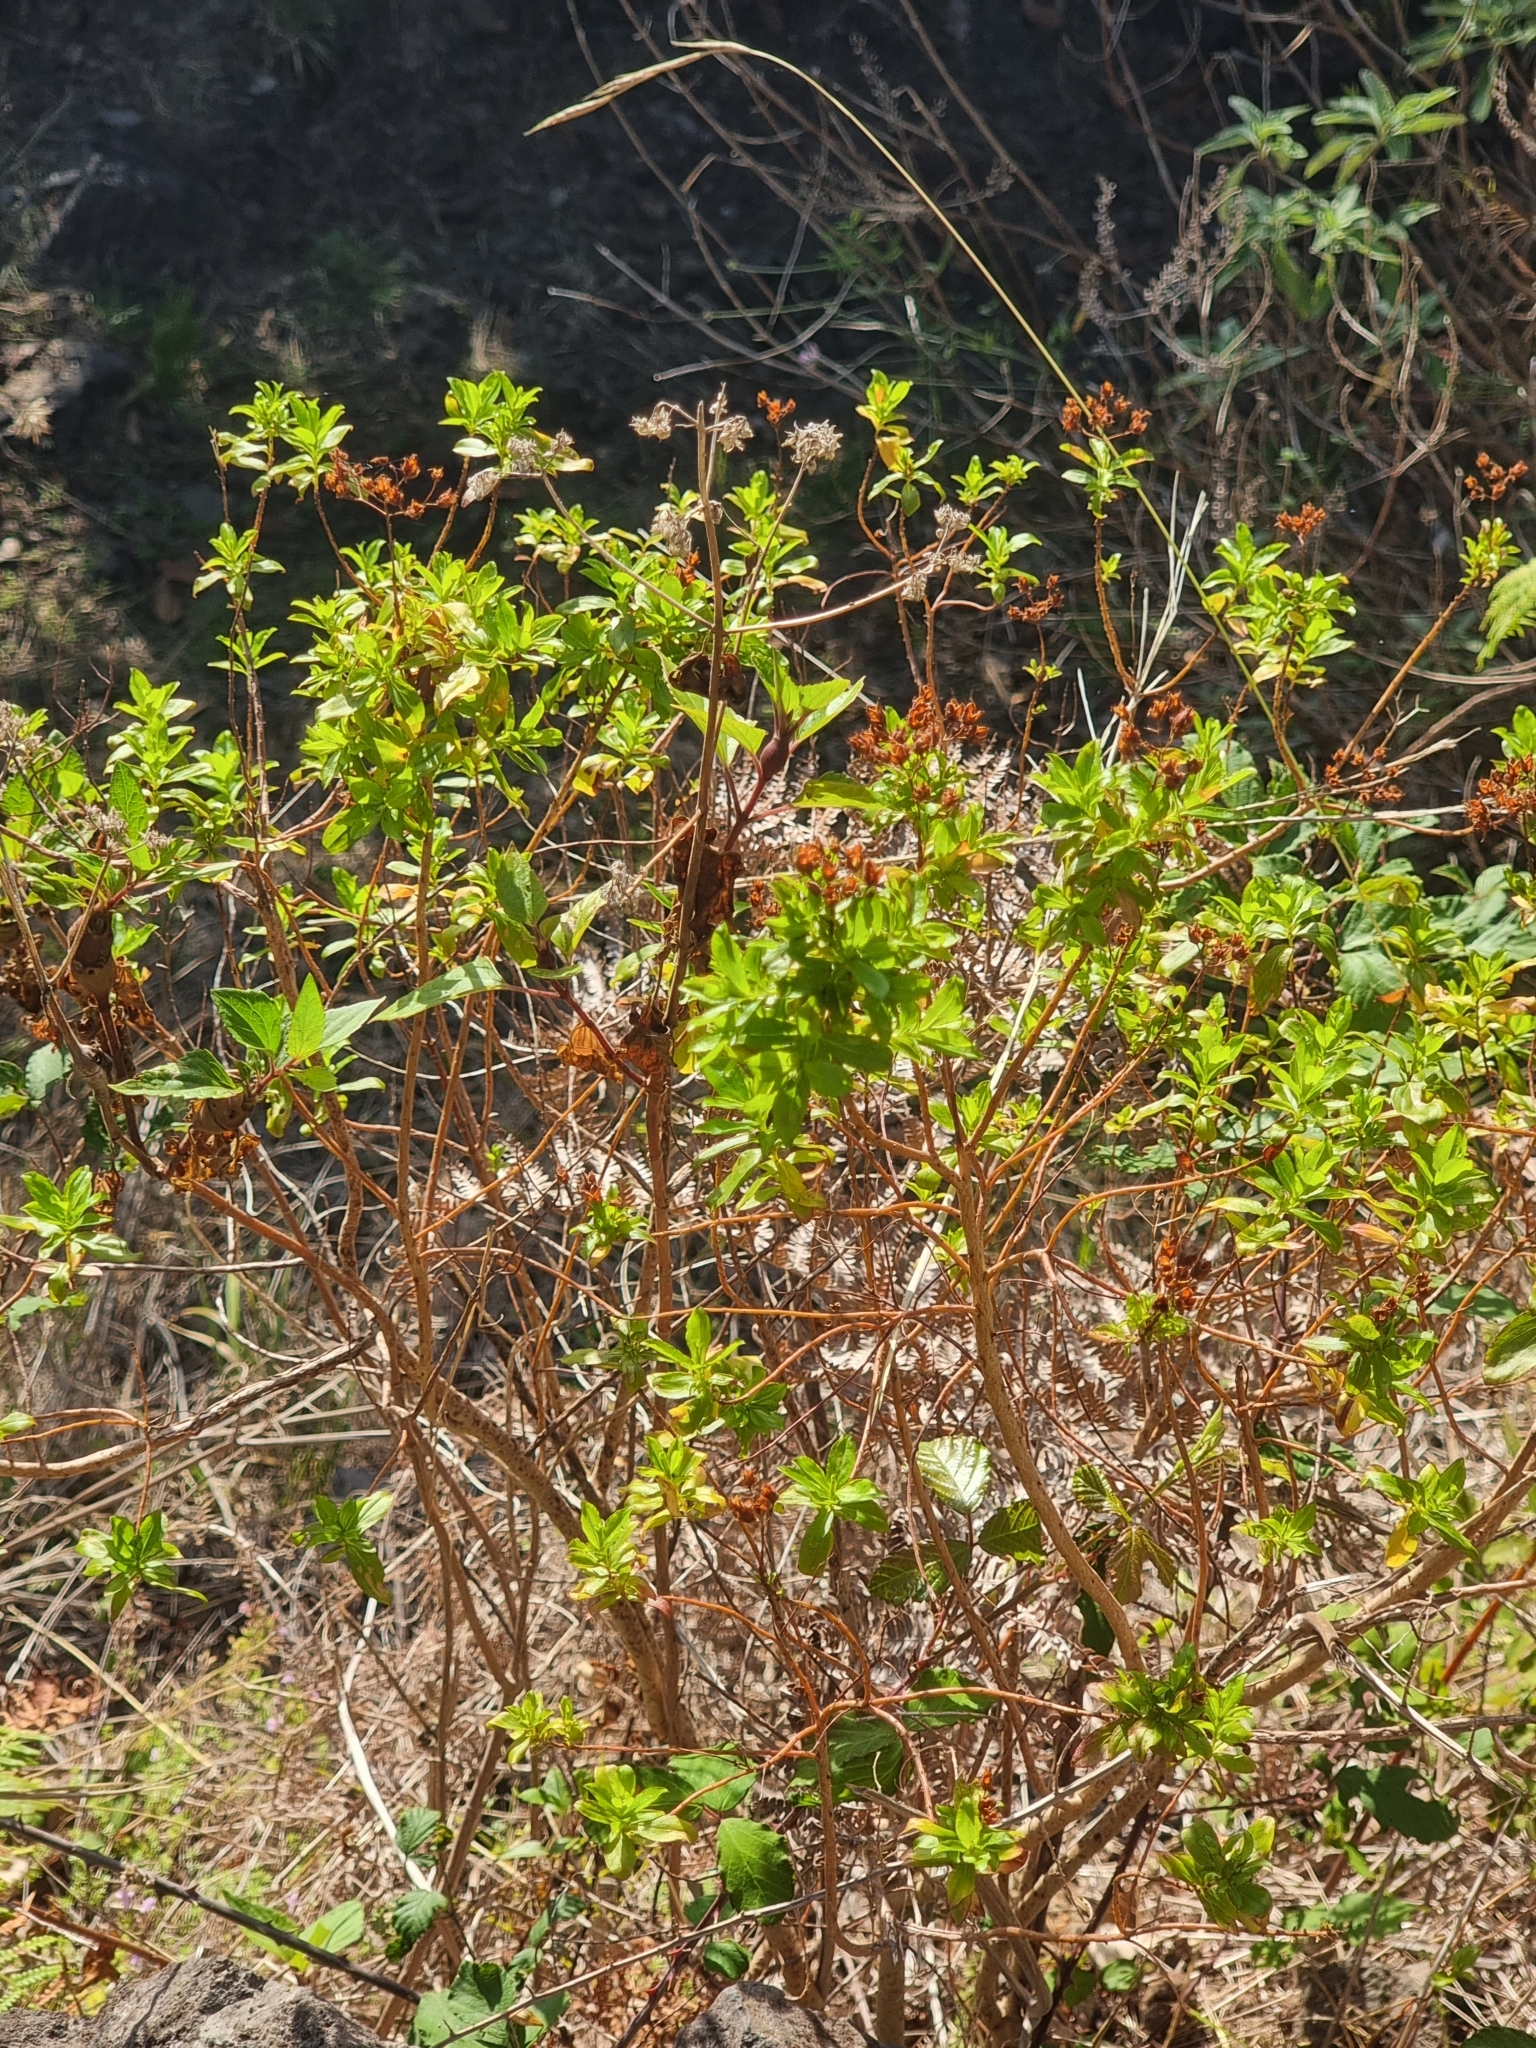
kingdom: Plantae
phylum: Tracheophyta
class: Magnoliopsida
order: Malpighiales
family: Hypericaceae
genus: Hypericum
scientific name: Hypericum glandulosum
